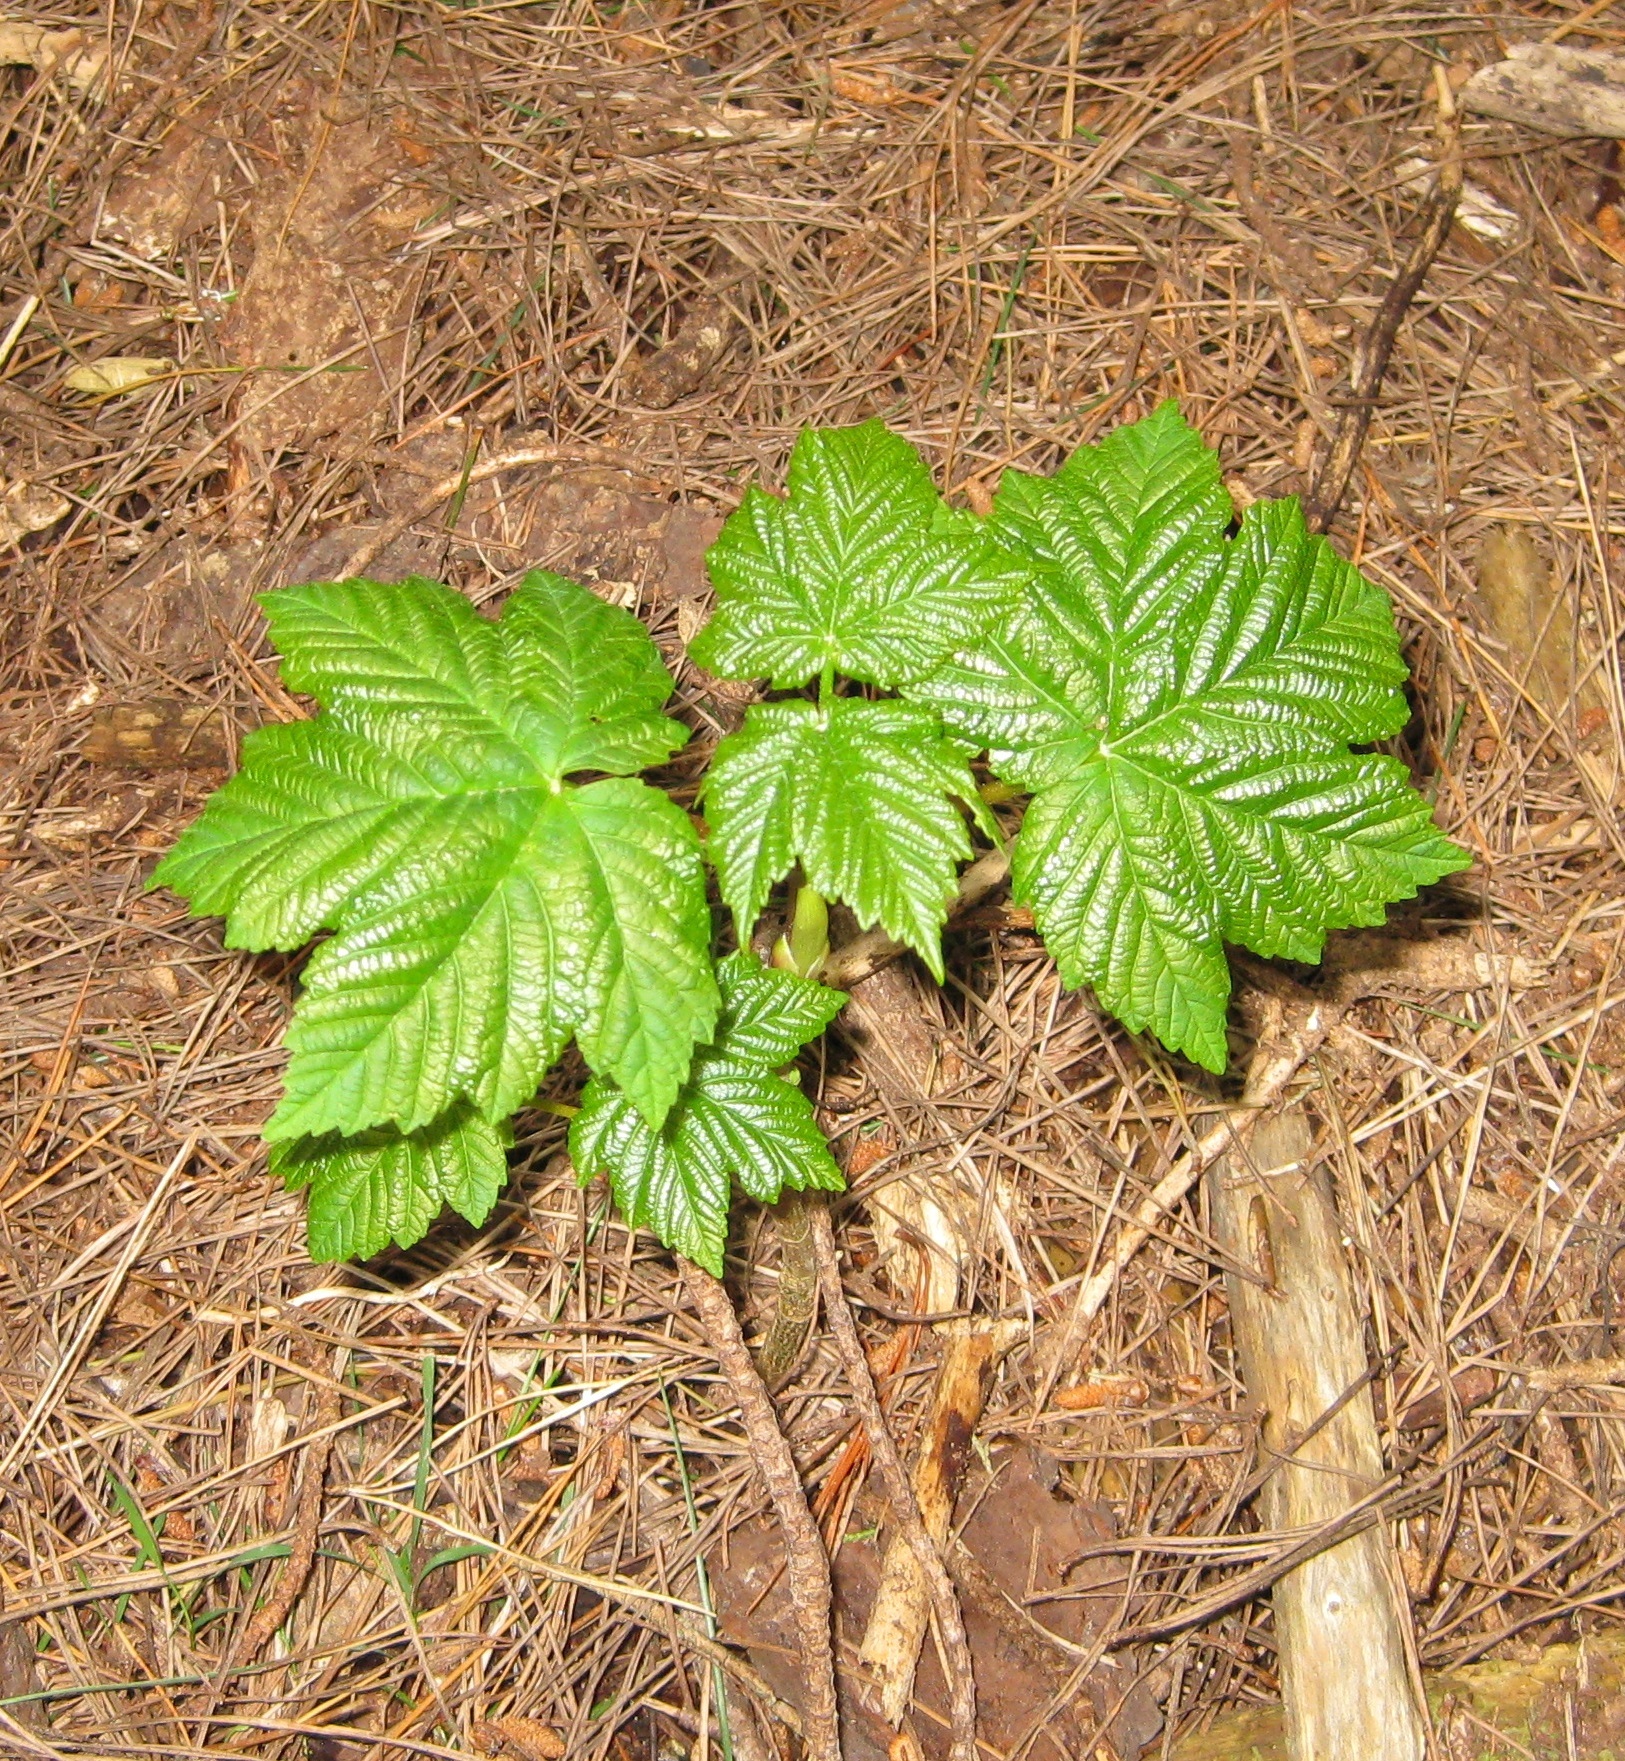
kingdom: Plantae
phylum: Tracheophyta
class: Magnoliopsida
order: Sapindales
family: Sapindaceae
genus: Acer
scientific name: Acer pseudoplatanus
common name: Sycamore
